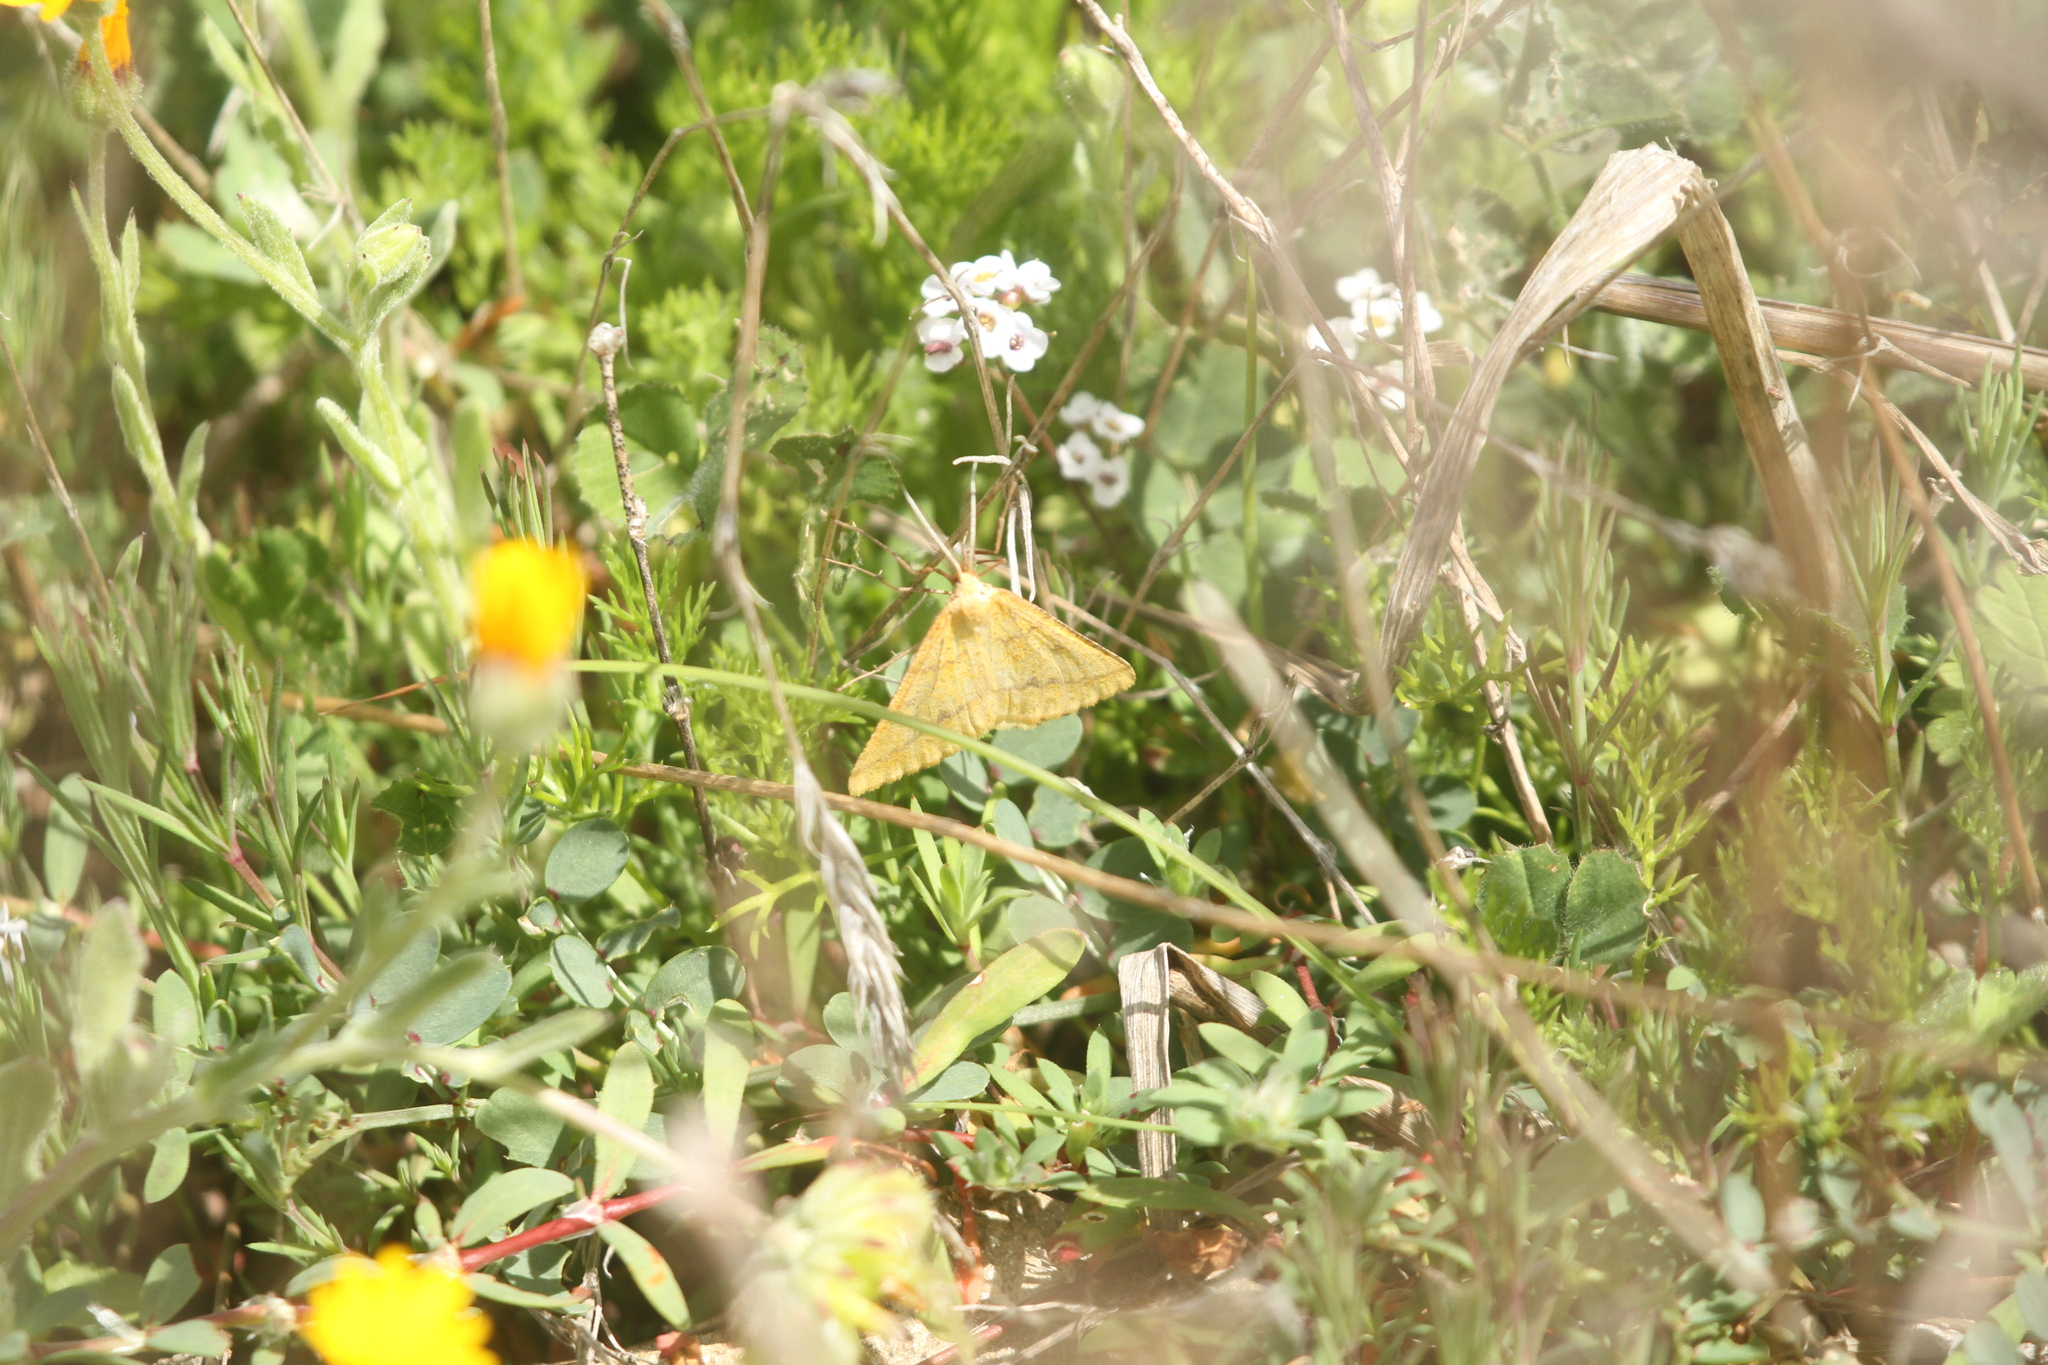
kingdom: Animalia
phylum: Arthropoda
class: Insecta
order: Lepidoptera
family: Geometridae
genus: Aspitates
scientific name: Aspitates ochrearia
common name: Yellow belle
